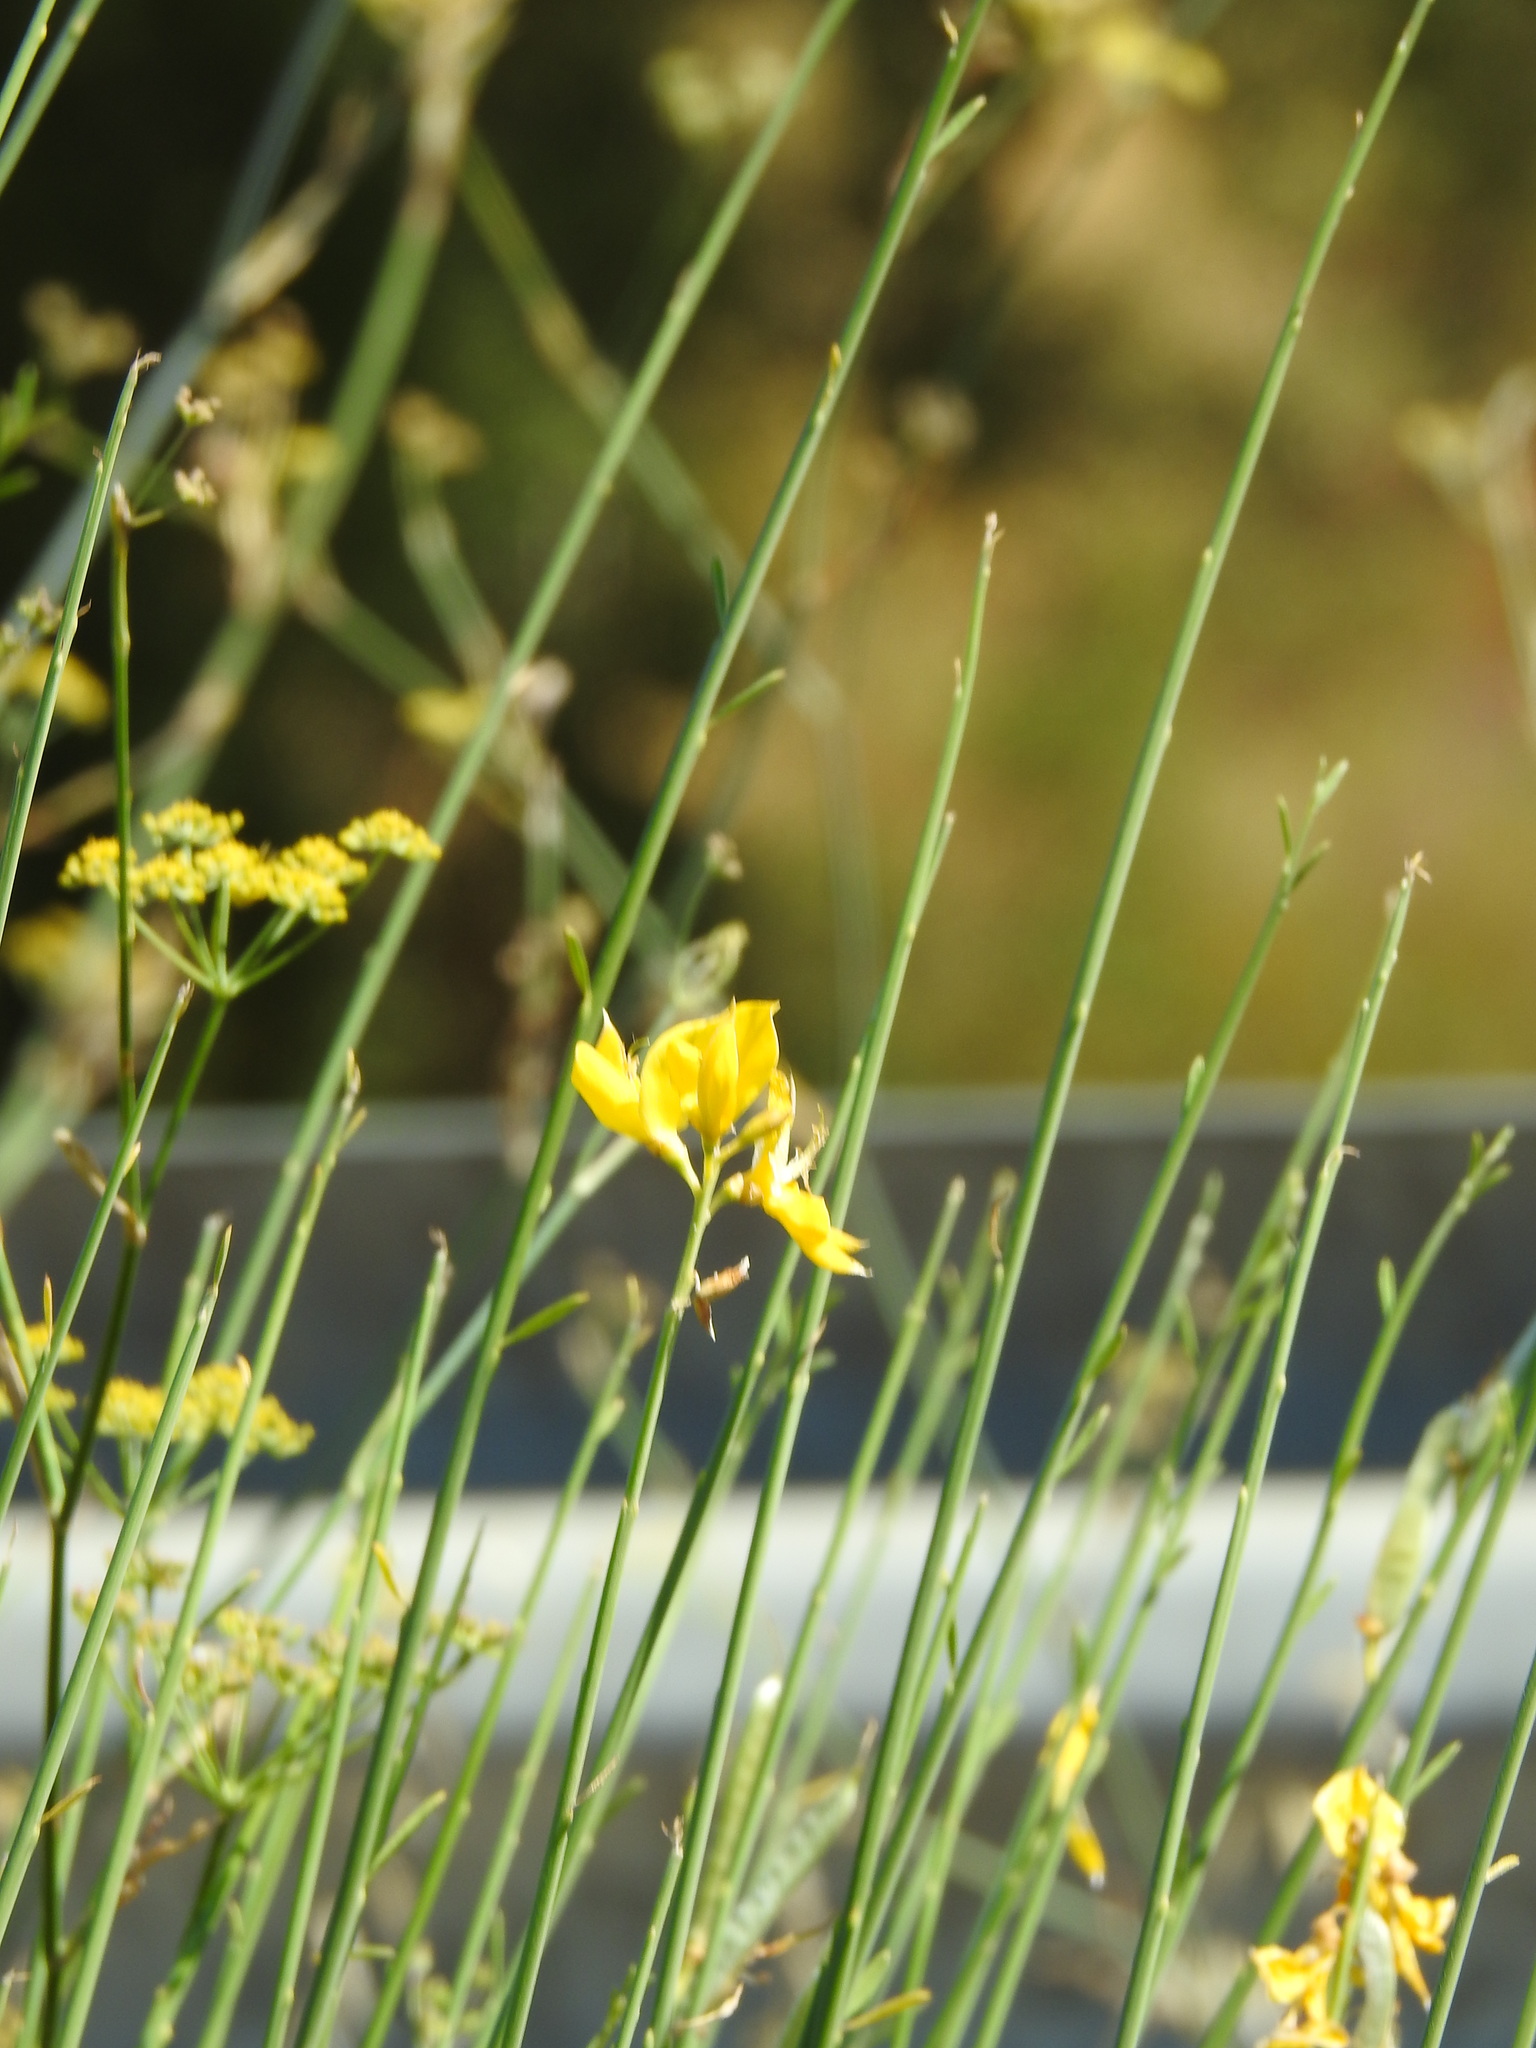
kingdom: Plantae
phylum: Tracheophyta
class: Magnoliopsida
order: Fabales
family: Fabaceae
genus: Spartium
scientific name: Spartium junceum
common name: Spanish broom
